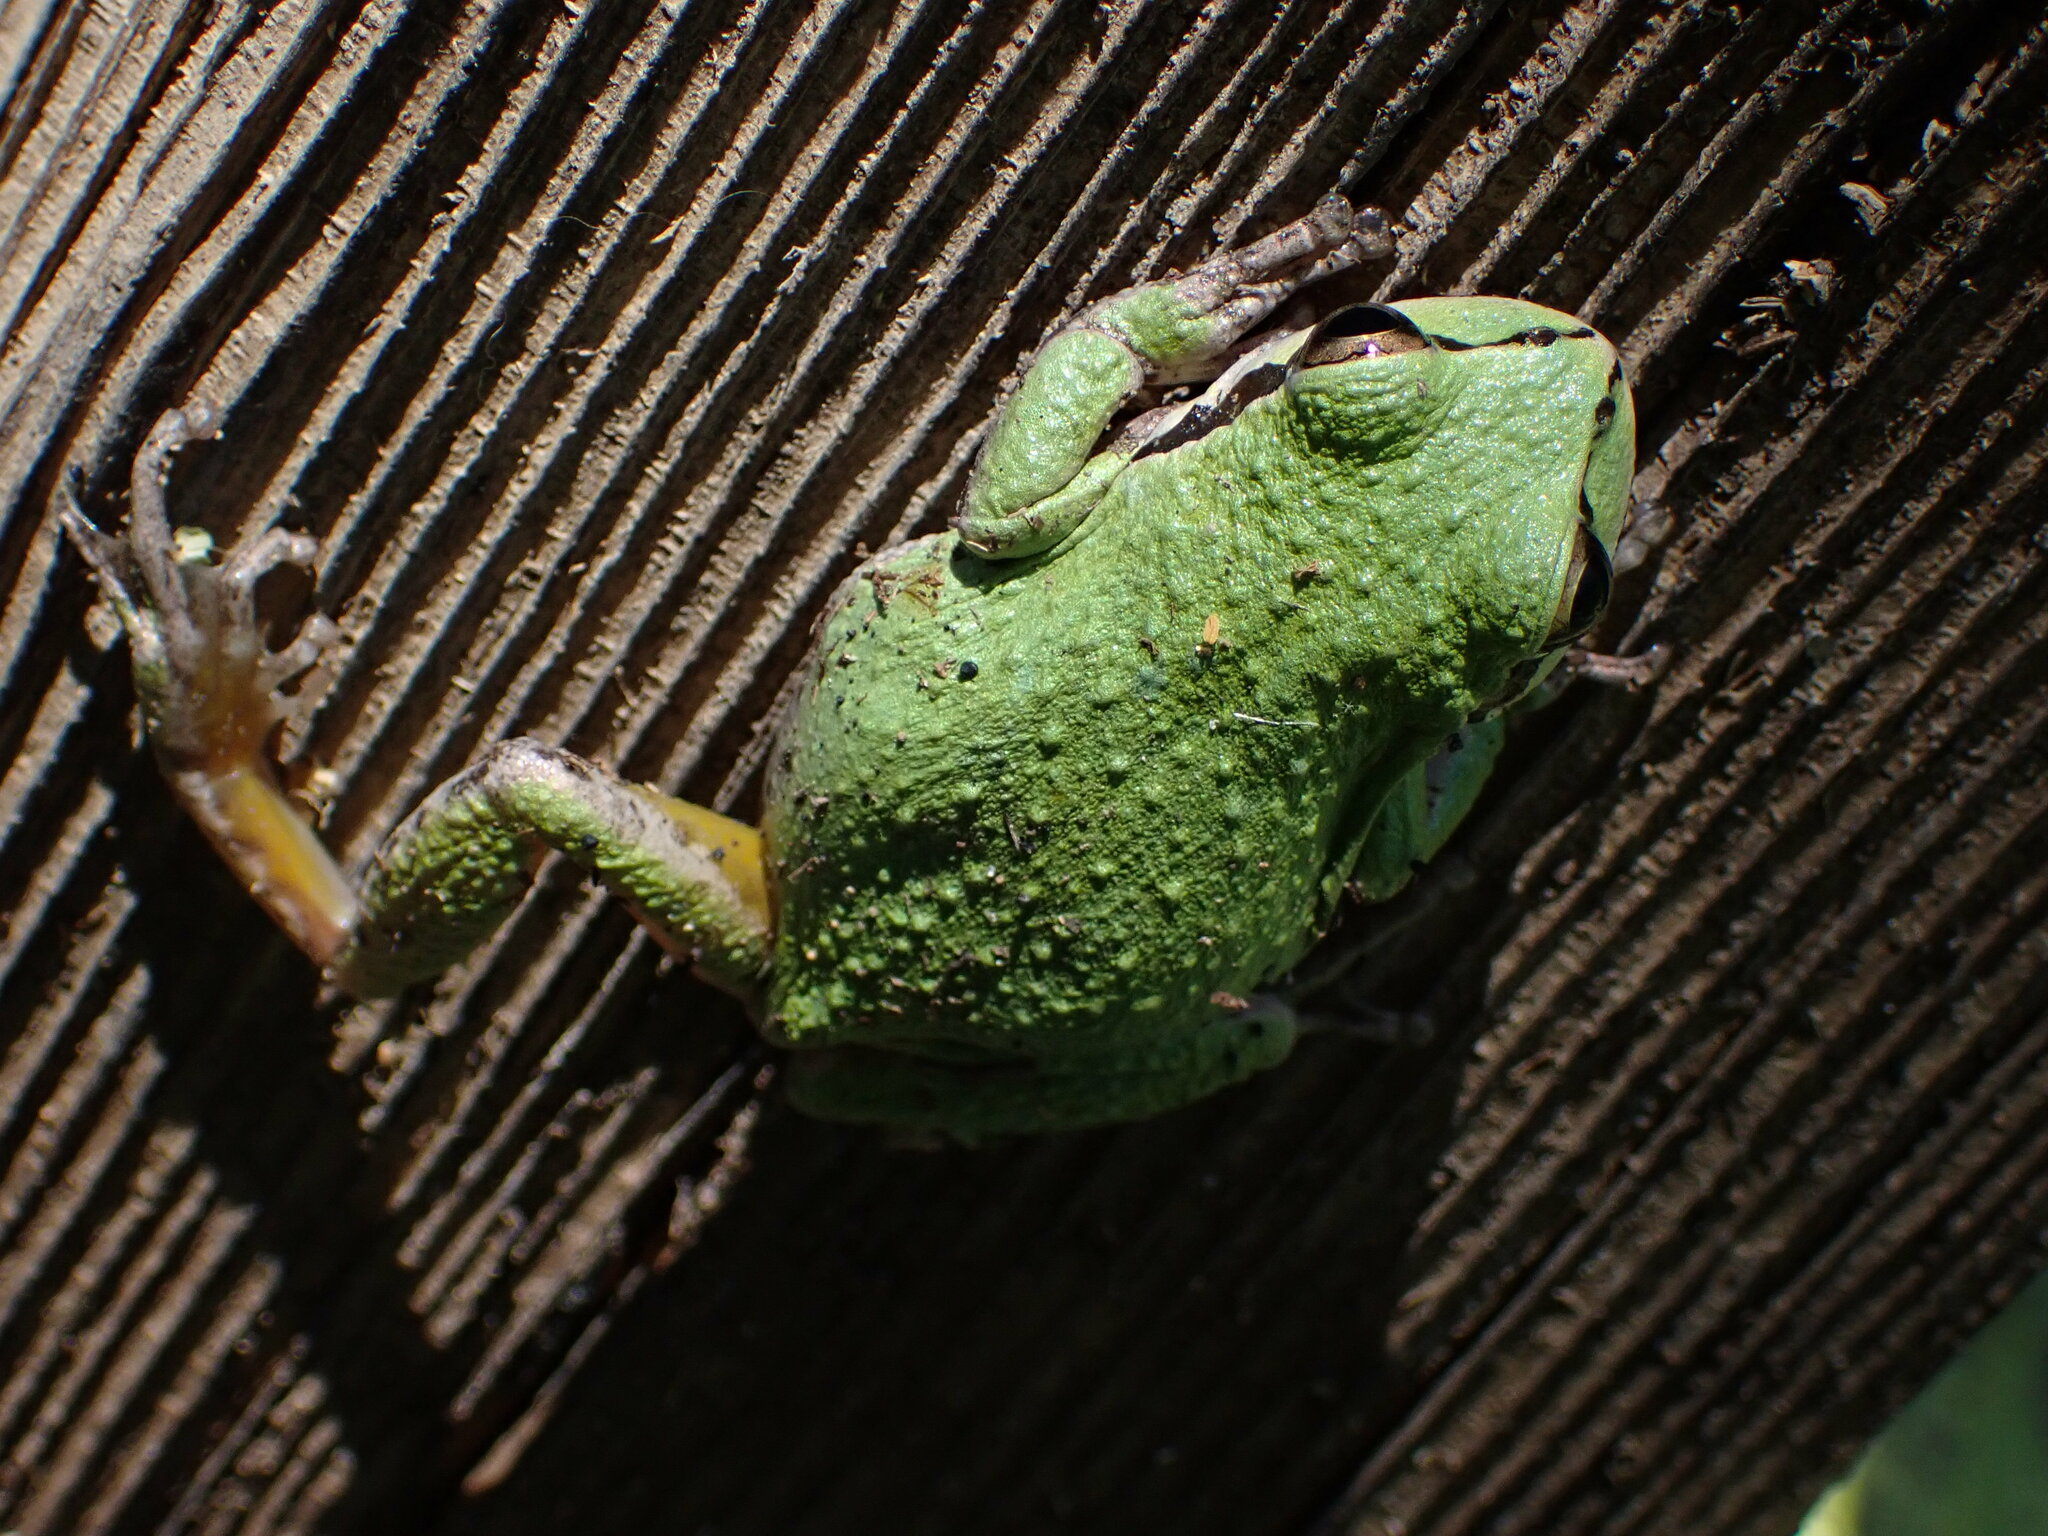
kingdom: Animalia
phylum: Chordata
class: Amphibia
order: Anura
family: Hylidae
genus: Pseudacris
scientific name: Pseudacris regilla
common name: Pacific chorus frog
